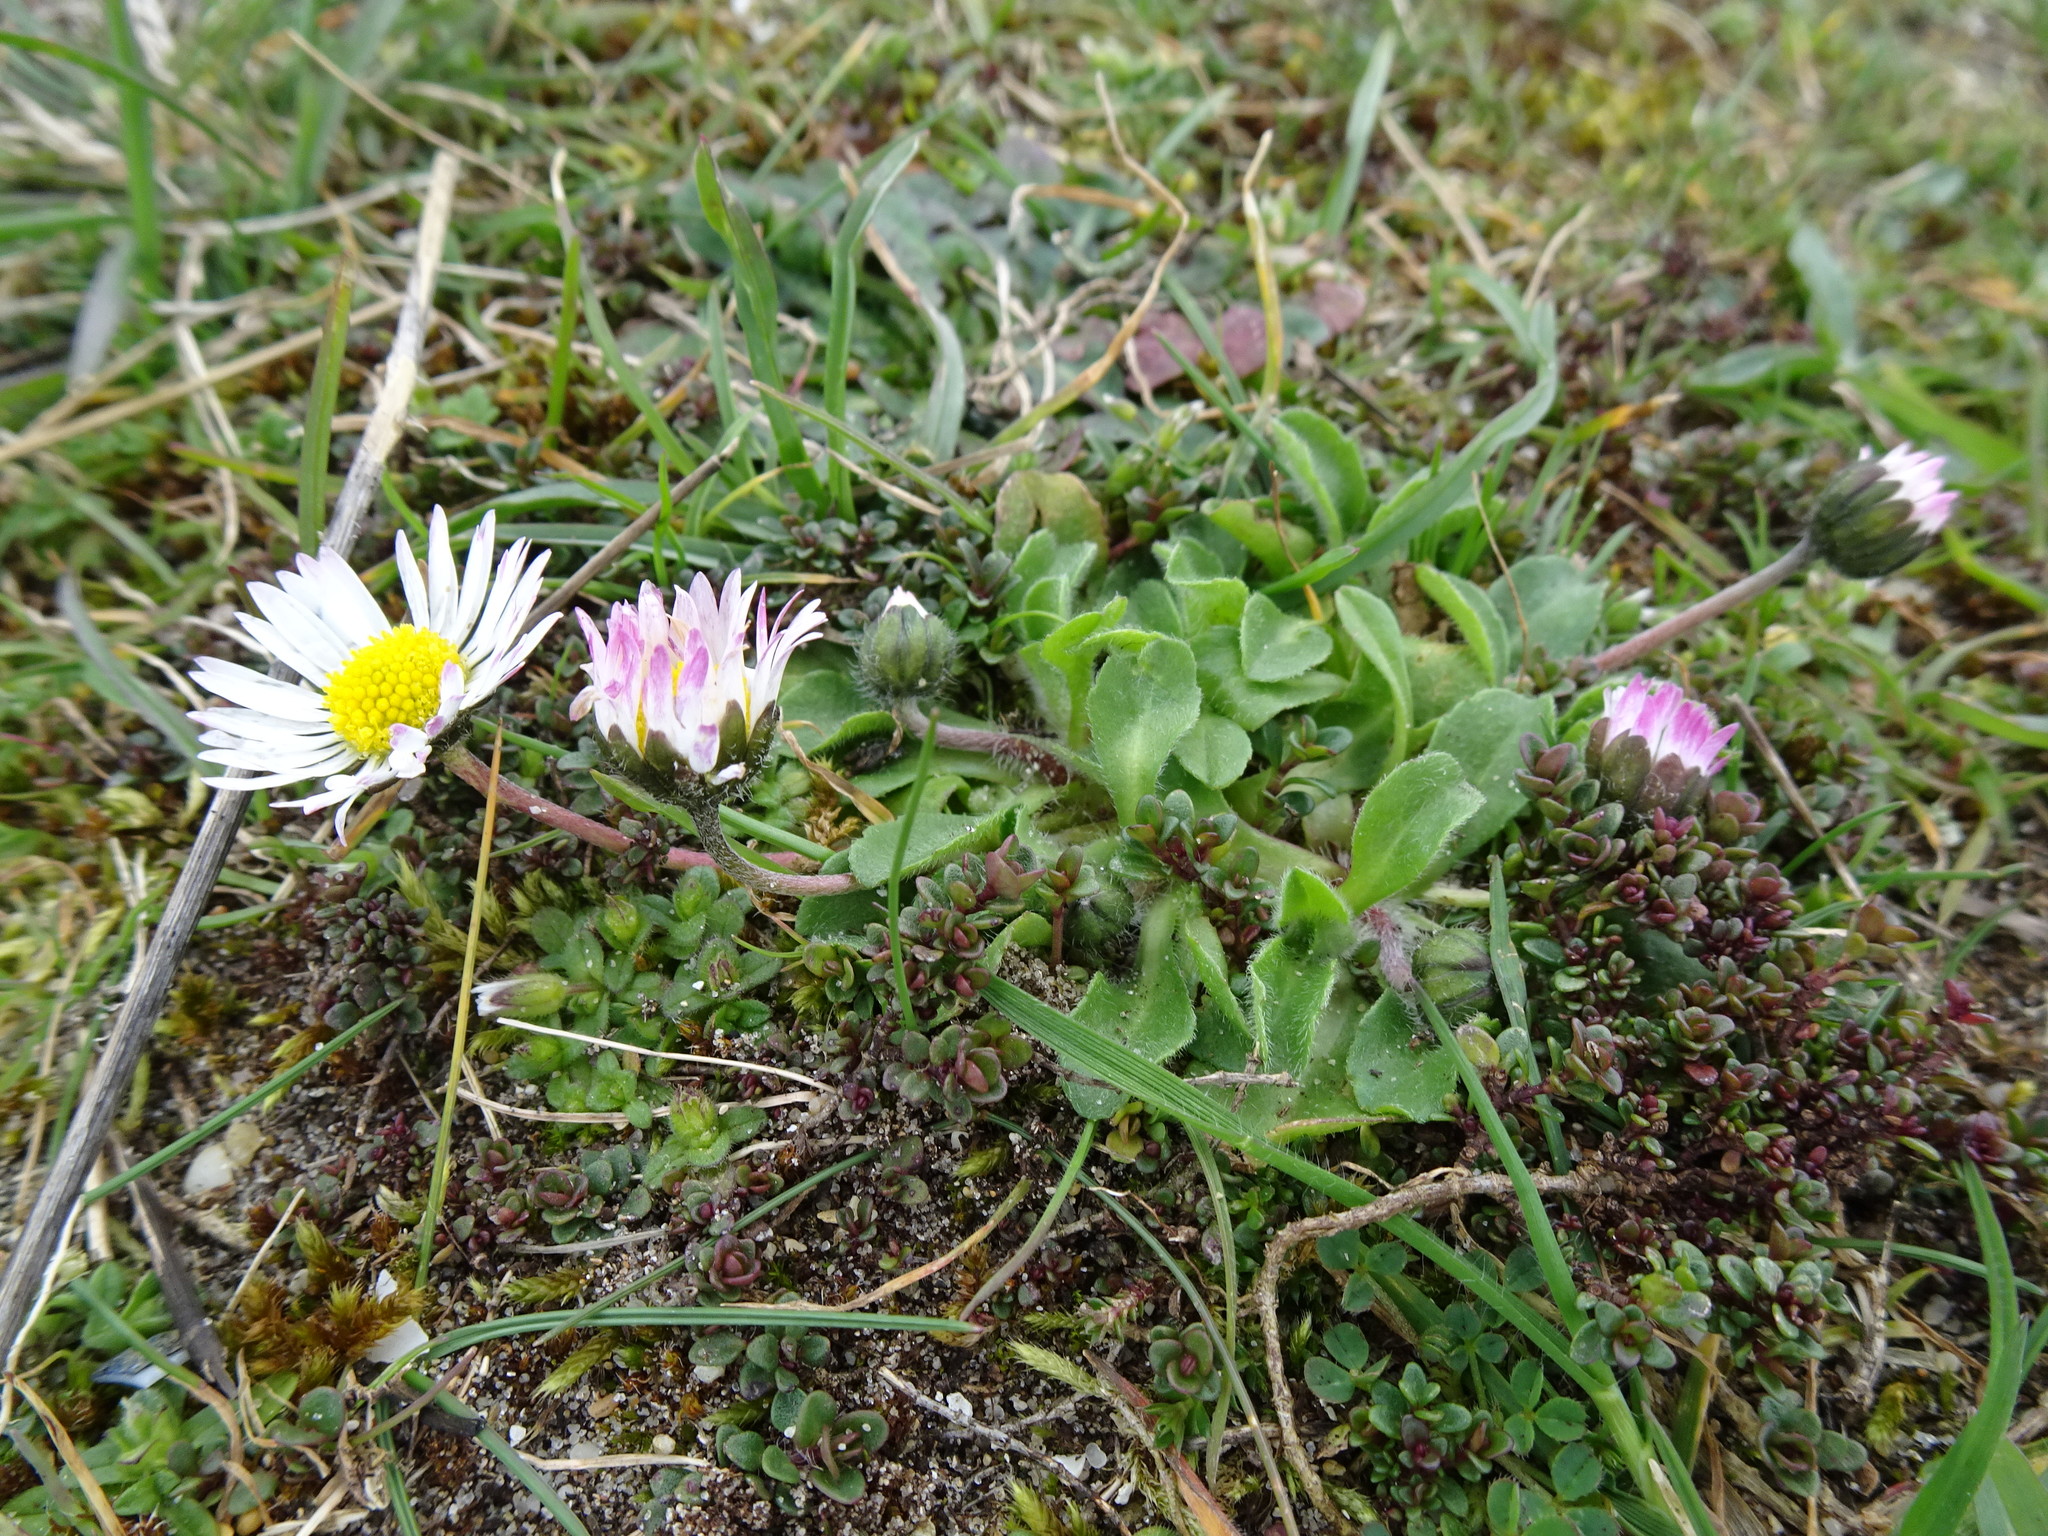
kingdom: Plantae
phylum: Tracheophyta
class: Magnoliopsida
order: Asterales
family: Asteraceae
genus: Bellis
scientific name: Bellis perennis
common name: Lawndaisy
